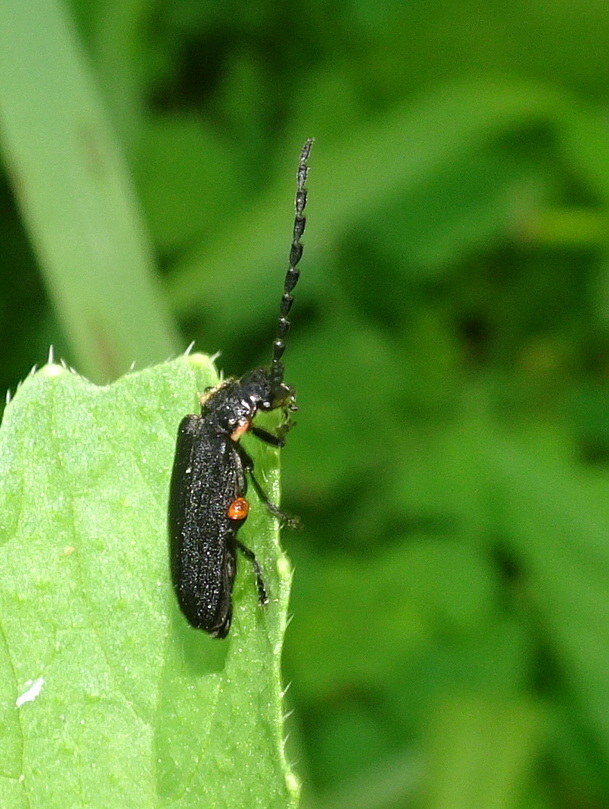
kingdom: Animalia
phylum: Arthropoda
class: Insecta
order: Coleoptera
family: Cantharidae
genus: Polemius
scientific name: Polemius laticornis
